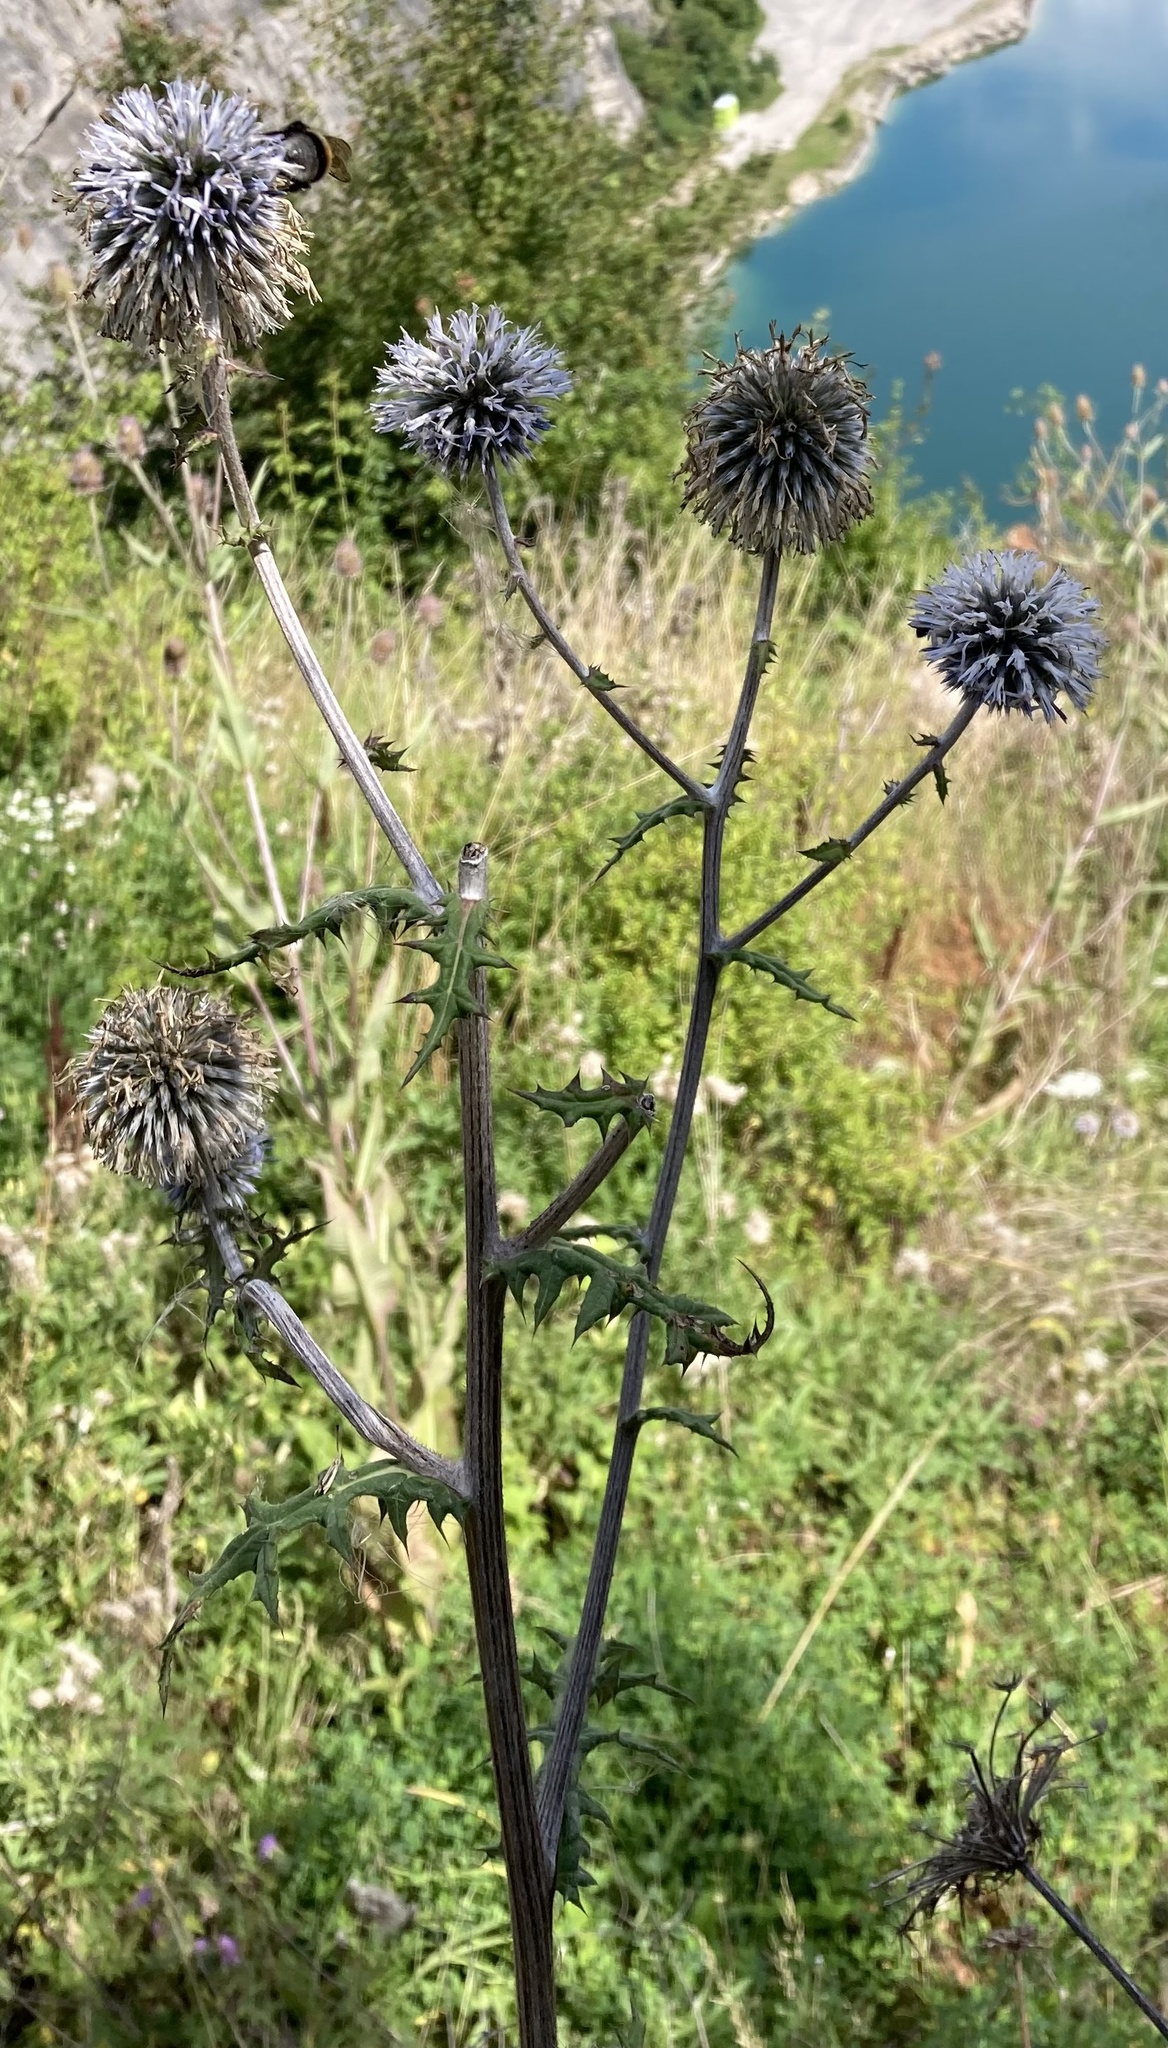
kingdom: Plantae
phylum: Tracheophyta
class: Magnoliopsida
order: Asterales
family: Asteraceae
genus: Echinops
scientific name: Echinops sphaerocephalus
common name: Glandular globe-thistle
